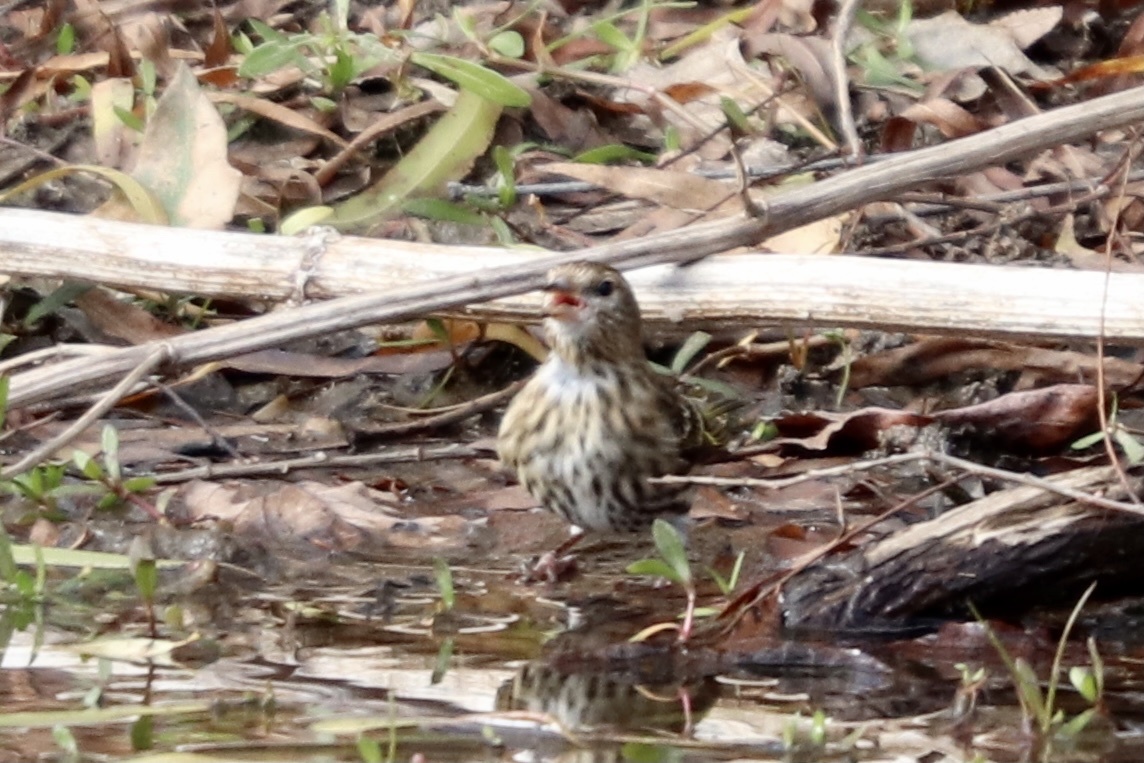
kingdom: Animalia
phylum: Chordata
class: Aves
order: Passeriformes
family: Fringillidae
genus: Spinus
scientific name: Spinus pinus
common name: Pine siskin
